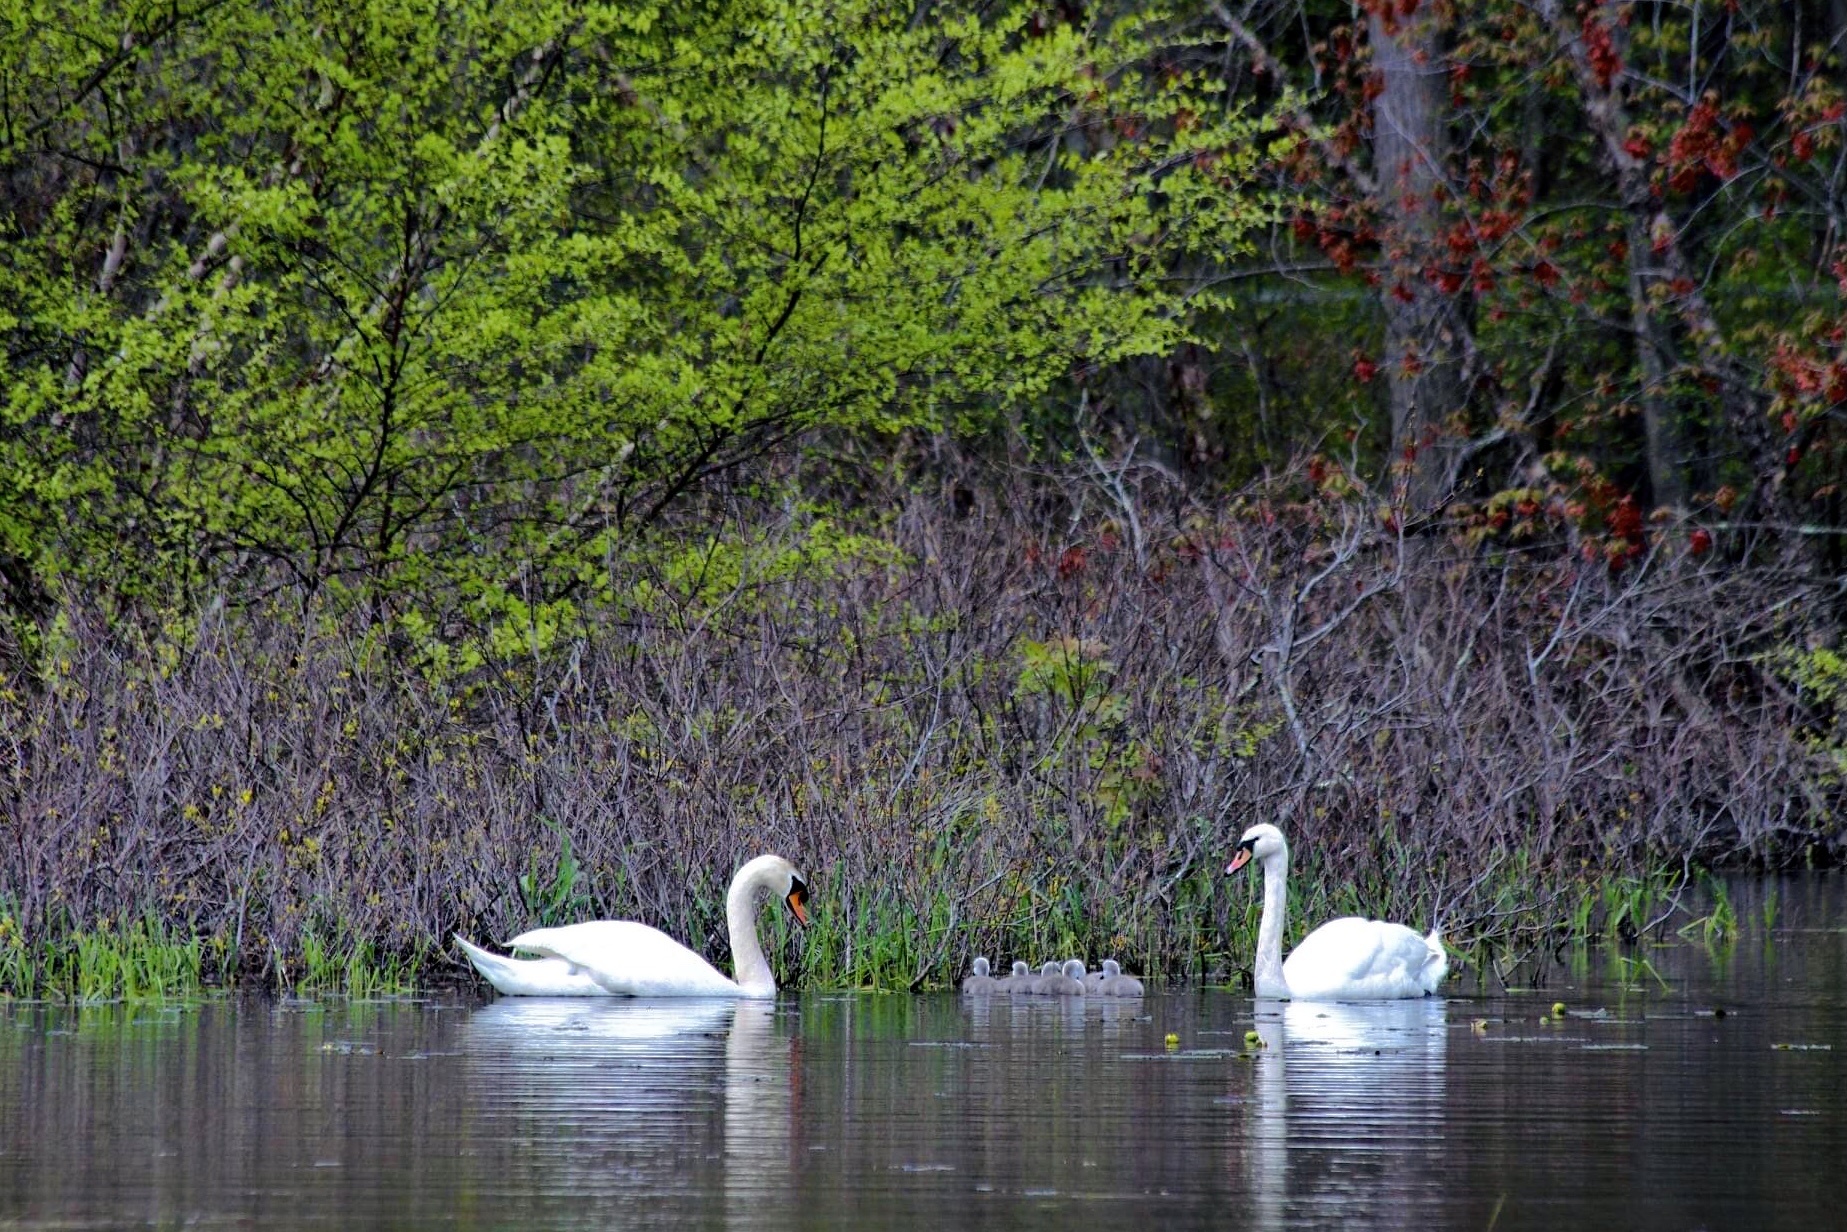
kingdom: Animalia
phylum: Chordata
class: Aves
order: Anseriformes
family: Anatidae
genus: Cygnus
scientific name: Cygnus olor
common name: Mute swan
